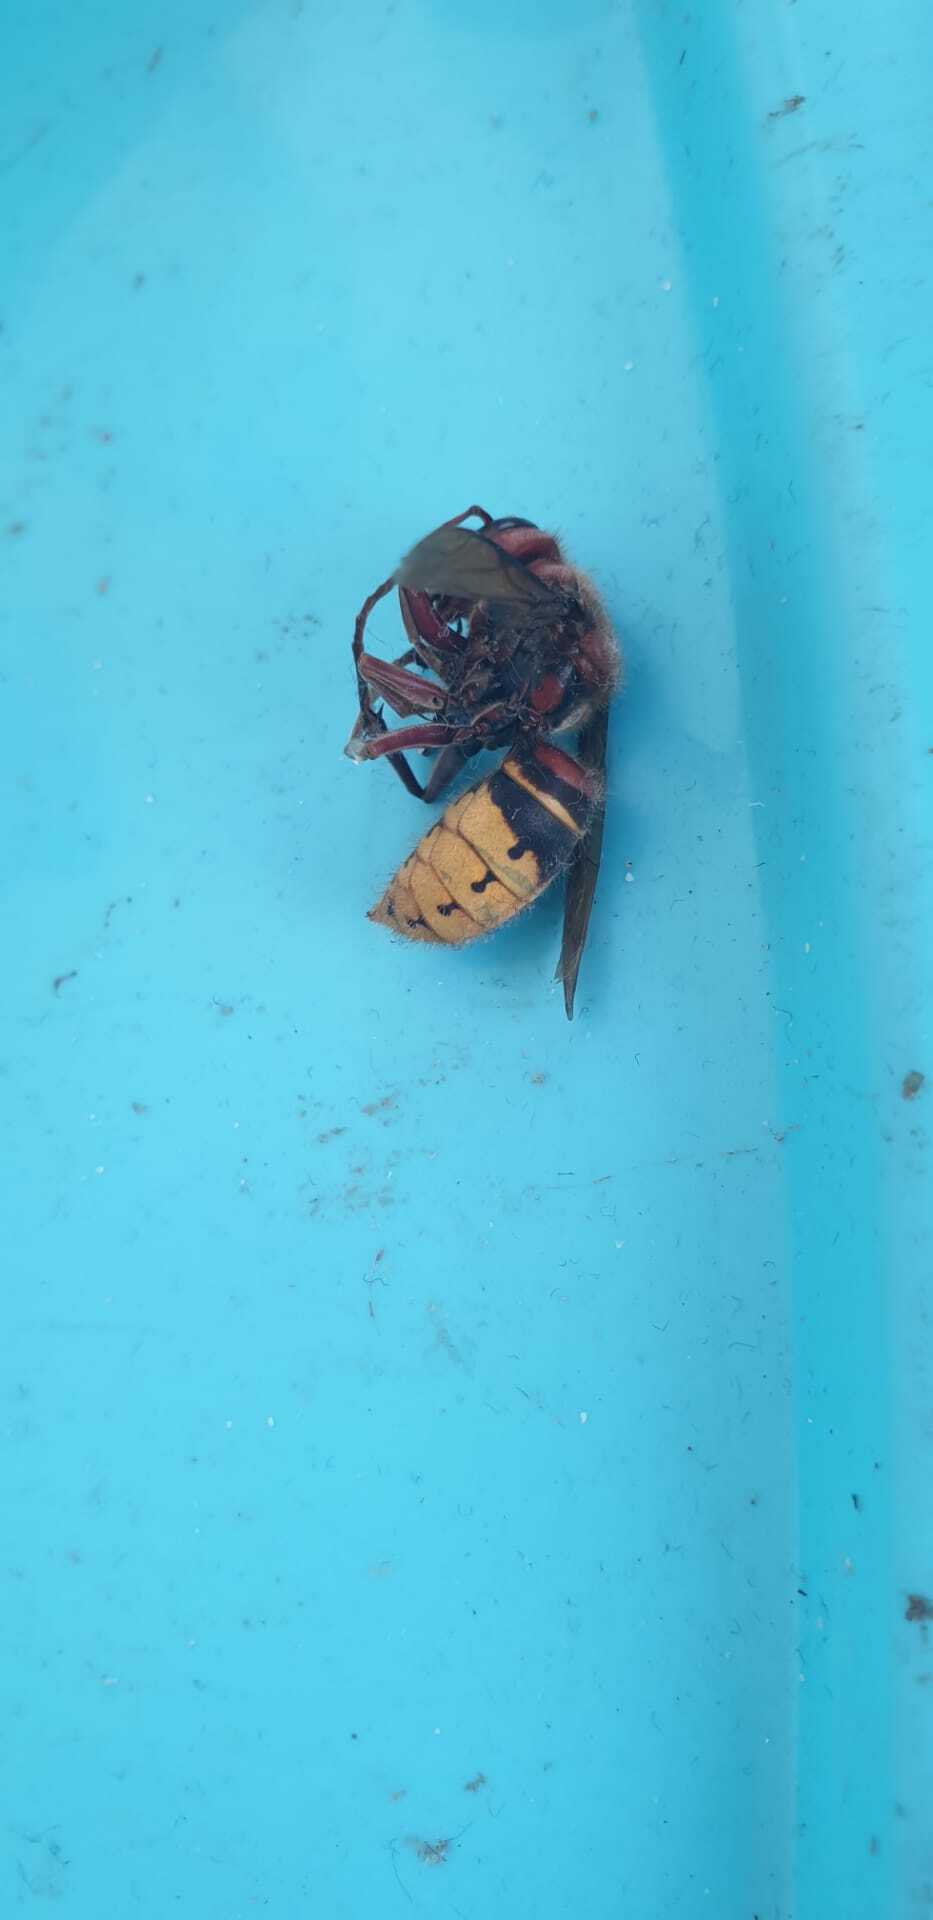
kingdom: Animalia
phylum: Arthropoda
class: Insecta
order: Hymenoptera
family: Vespidae
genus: Vespa
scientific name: Vespa crabro
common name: Hornet
